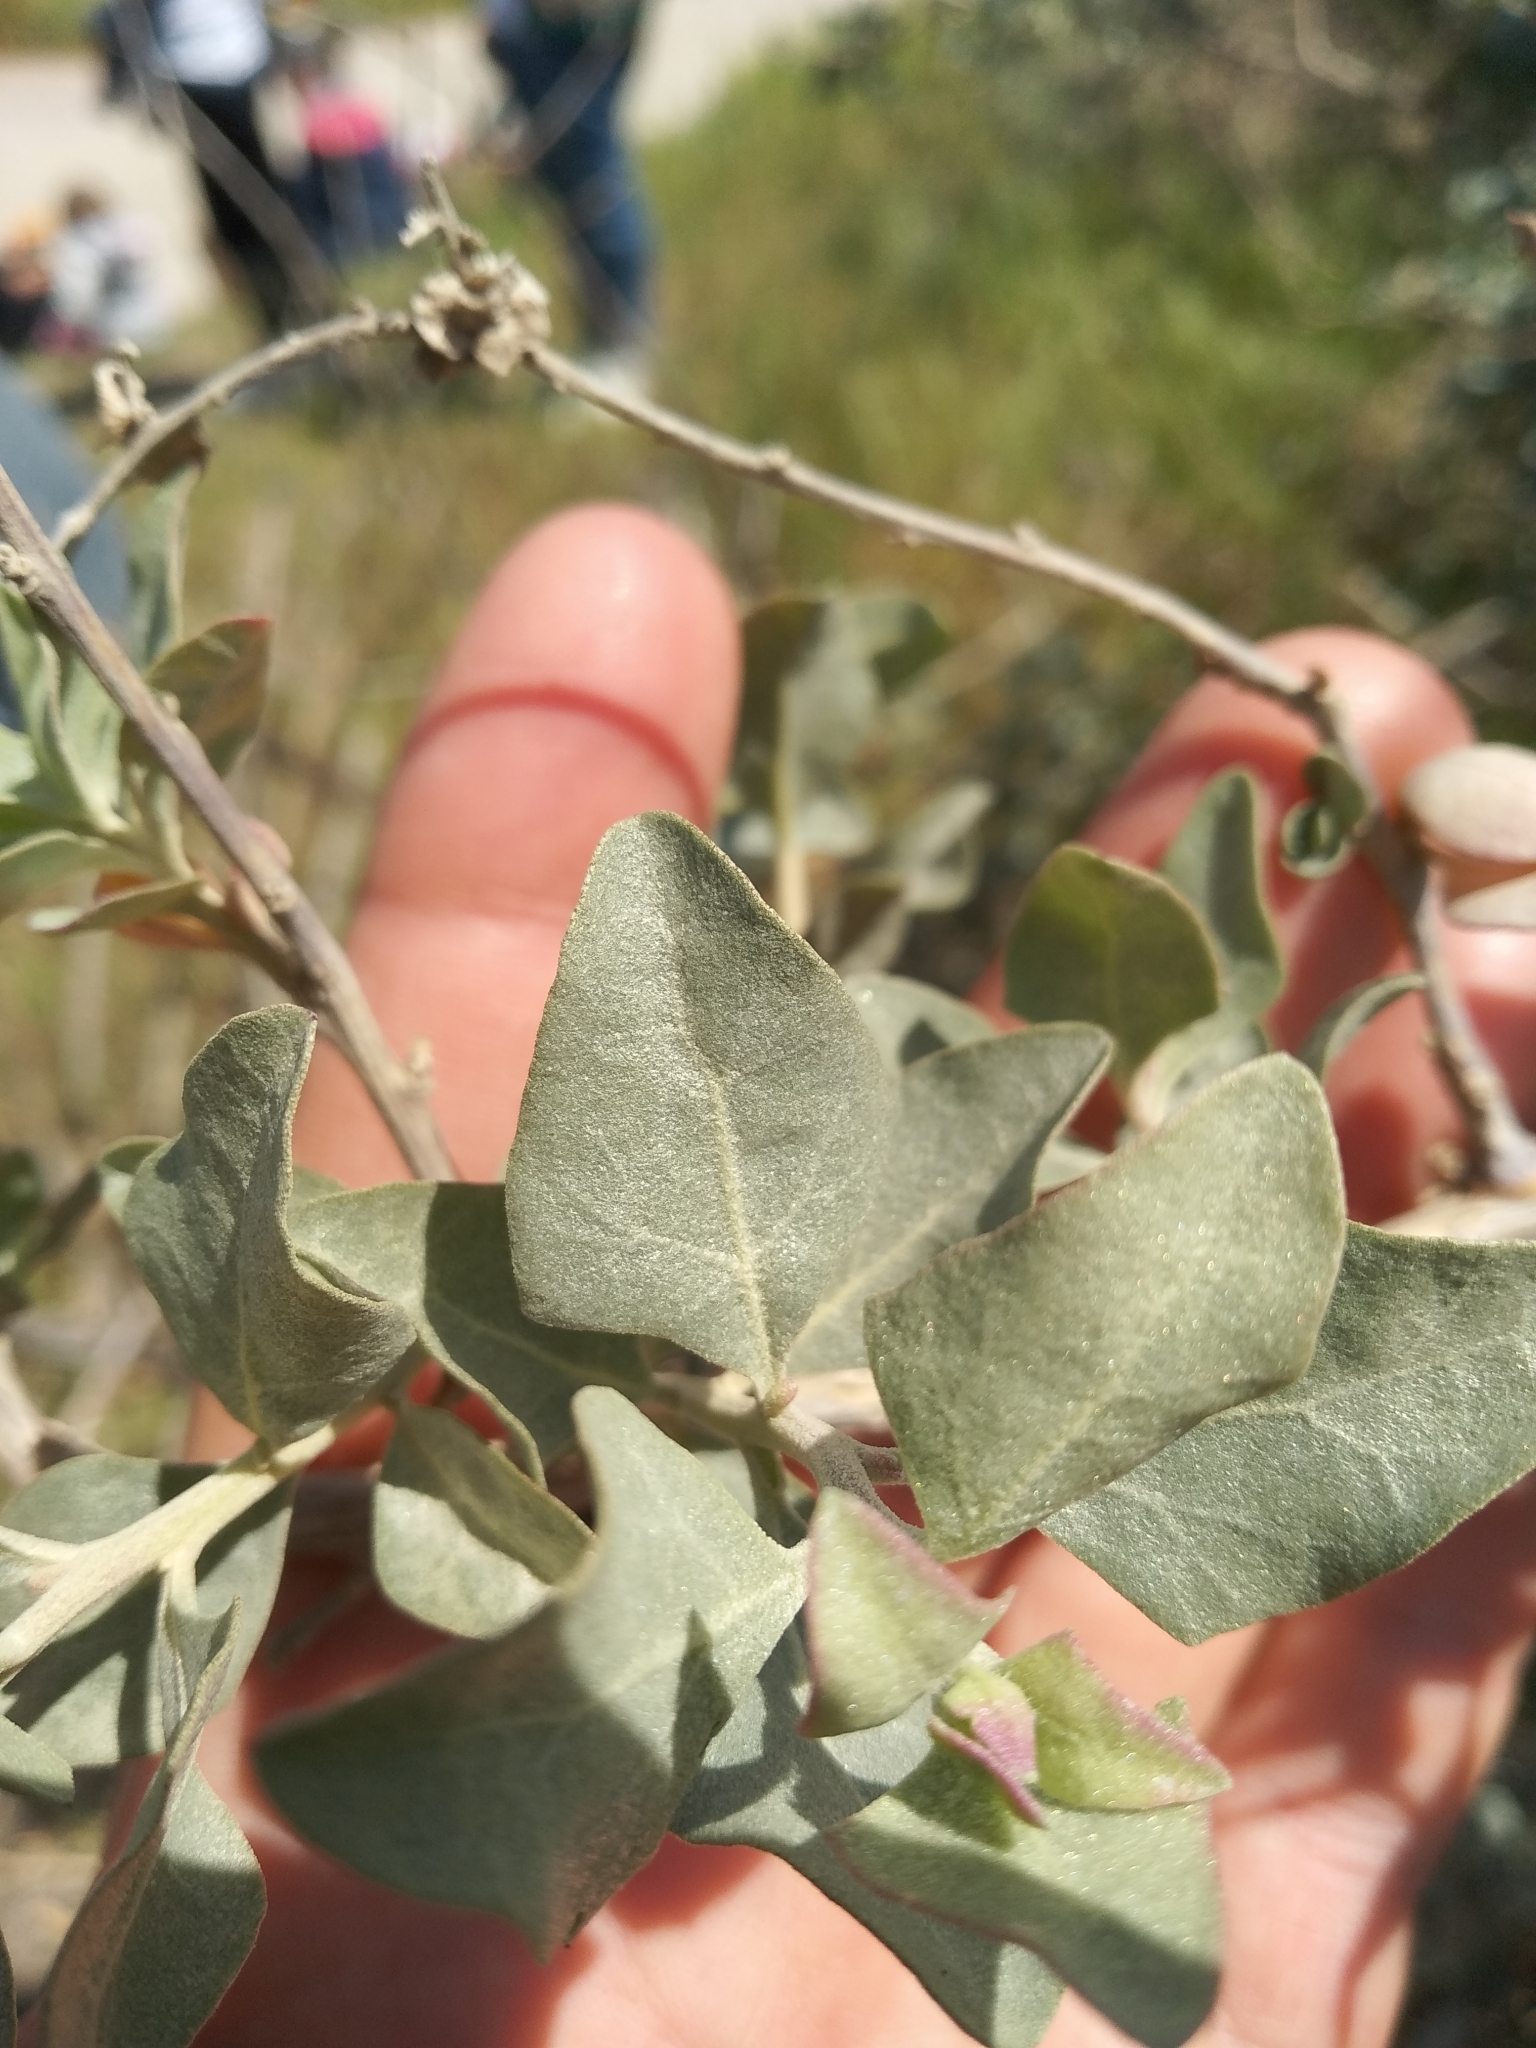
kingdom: Plantae
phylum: Tracheophyta
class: Magnoliopsida
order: Caryophyllales
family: Amaranthaceae
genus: Atriplex
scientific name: Atriplex halimus
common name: Shrubby orache
